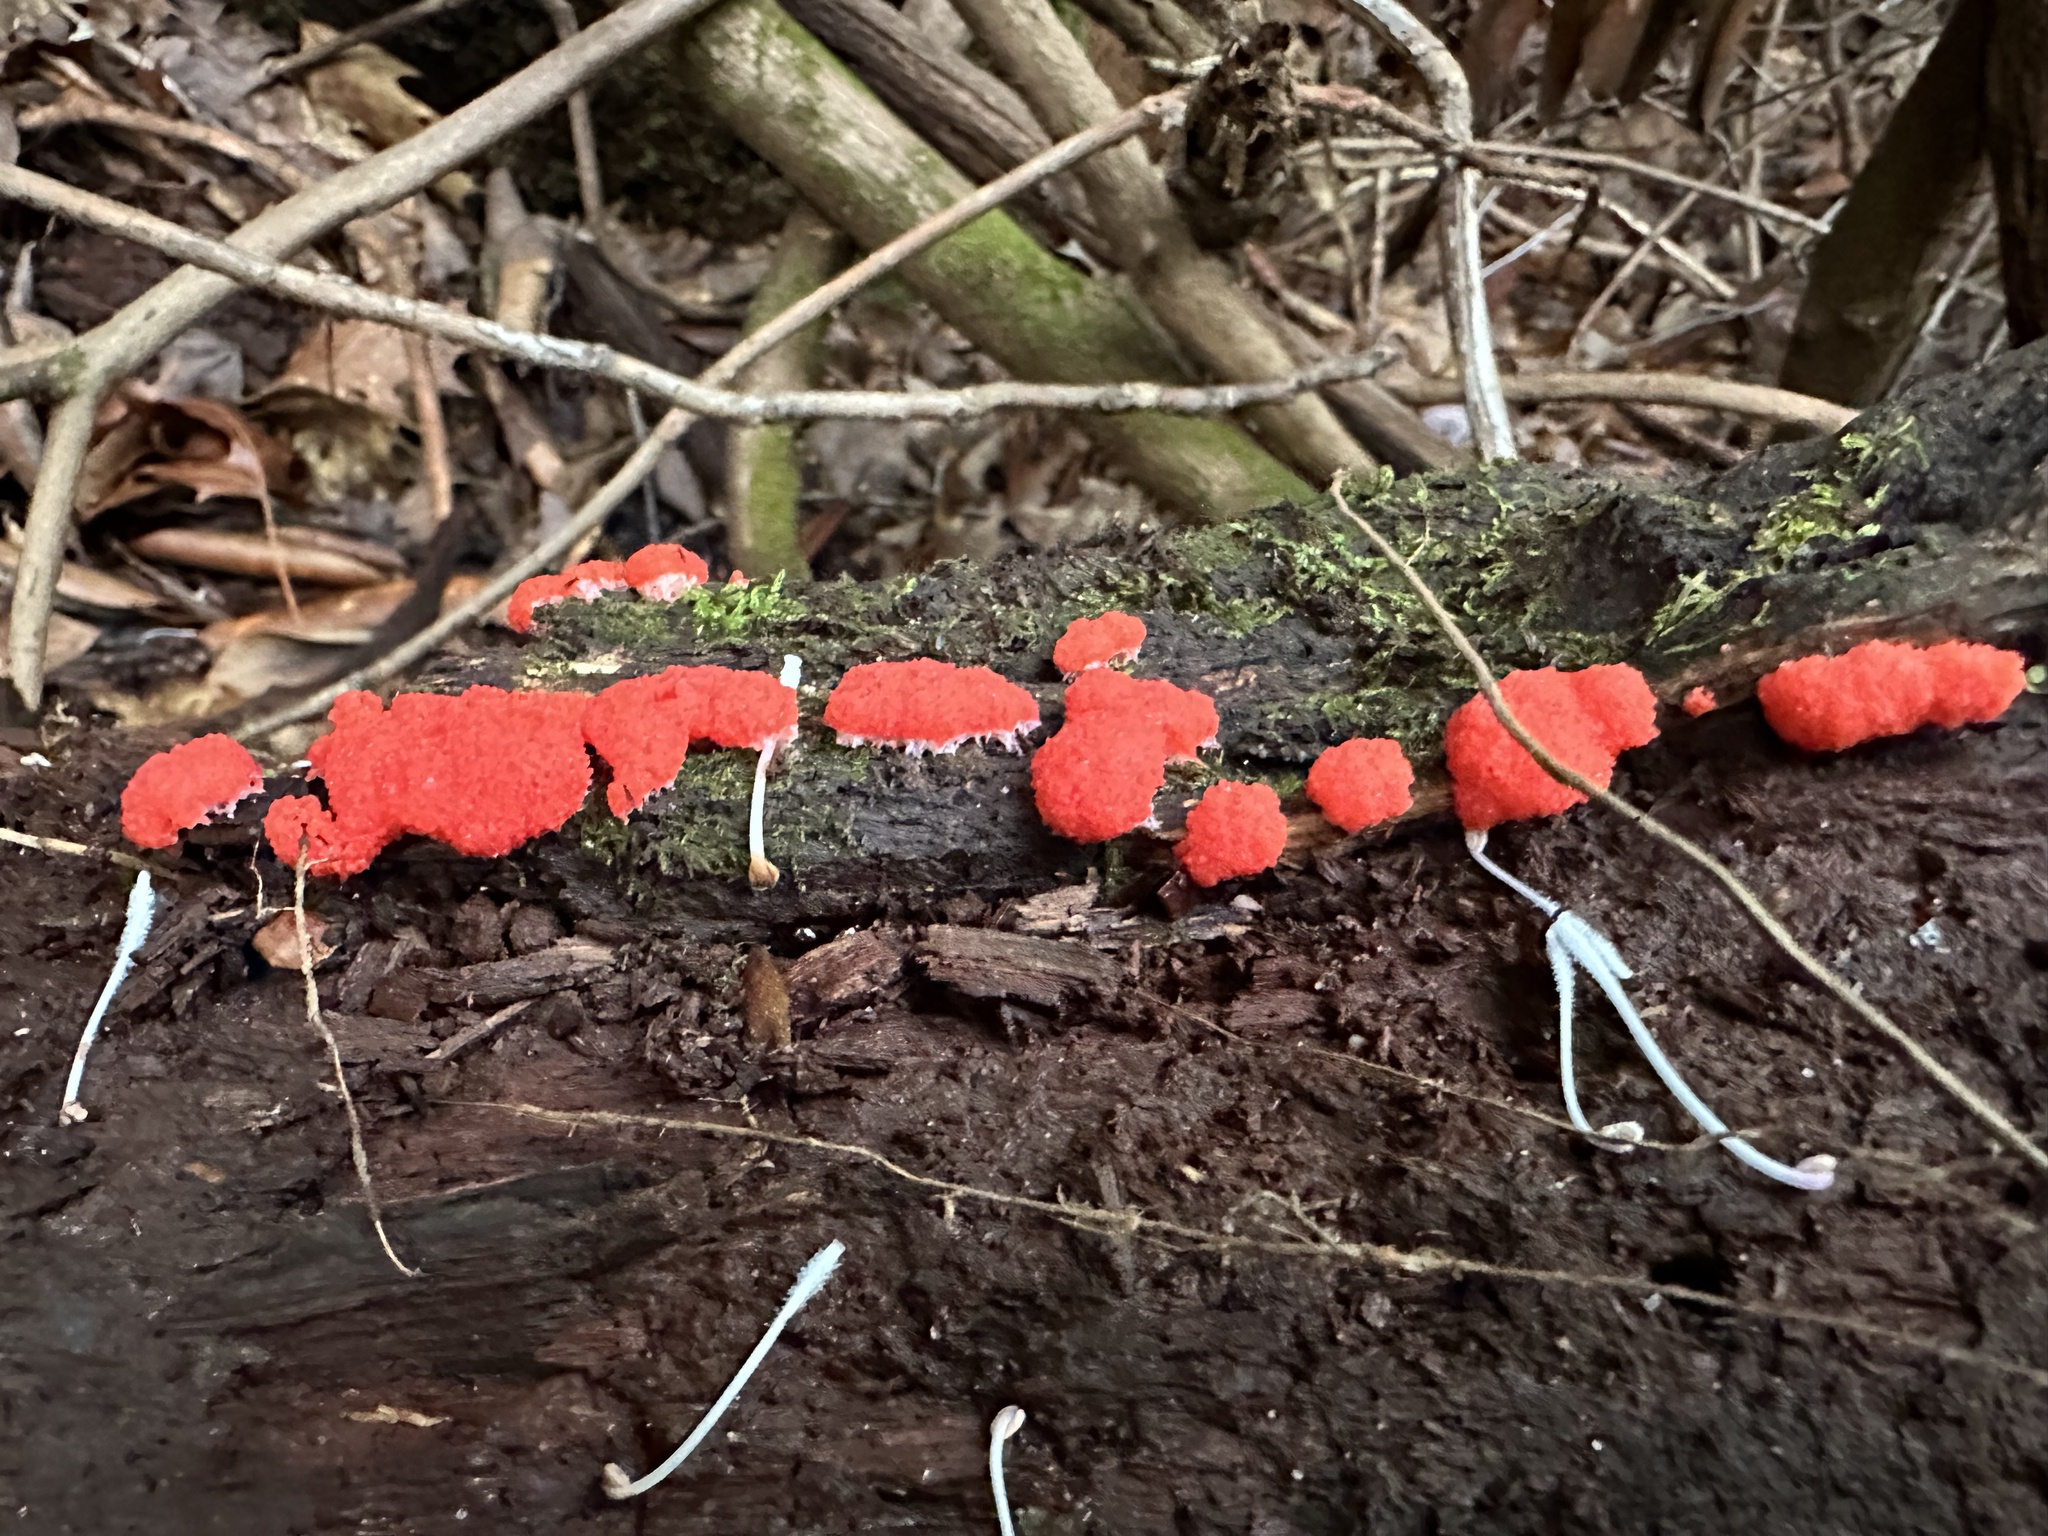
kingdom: Protozoa
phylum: Mycetozoa
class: Myxomycetes
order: Cribrariales
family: Tubiferaceae
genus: Tubifera
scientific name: Tubifera ferruginosa
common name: Red raspberry slime mold
